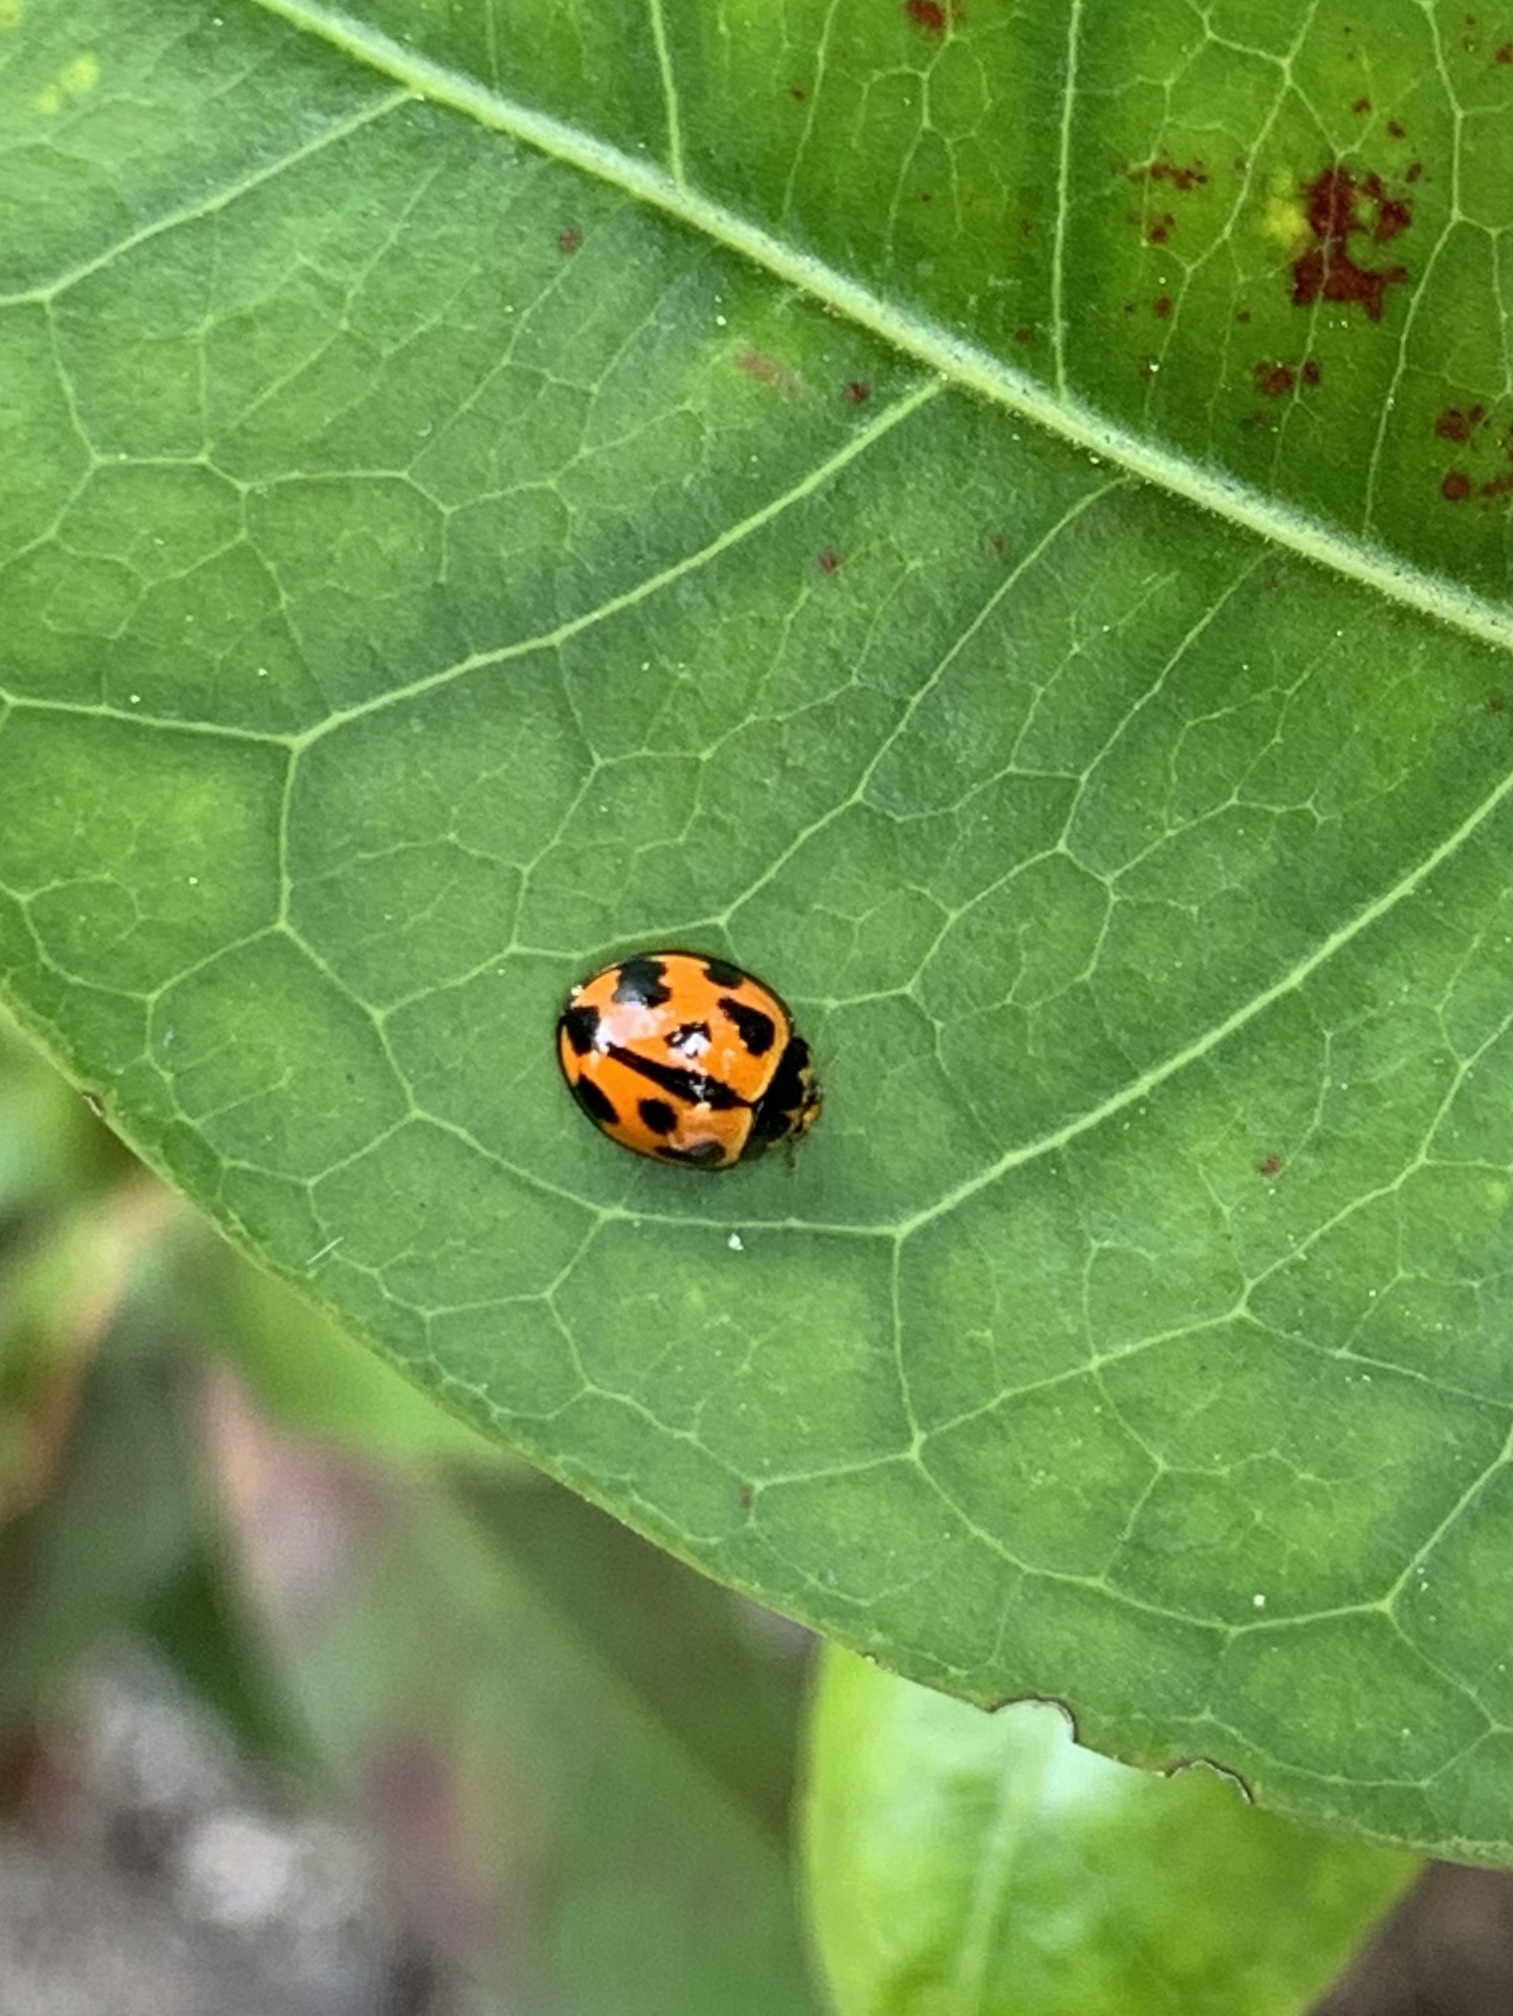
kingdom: Animalia
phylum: Arthropoda
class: Insecta
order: Coleoptera
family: Coccinellidae
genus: Coelophora
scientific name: Coelophora inaequalis
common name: Common australian lady beetle
